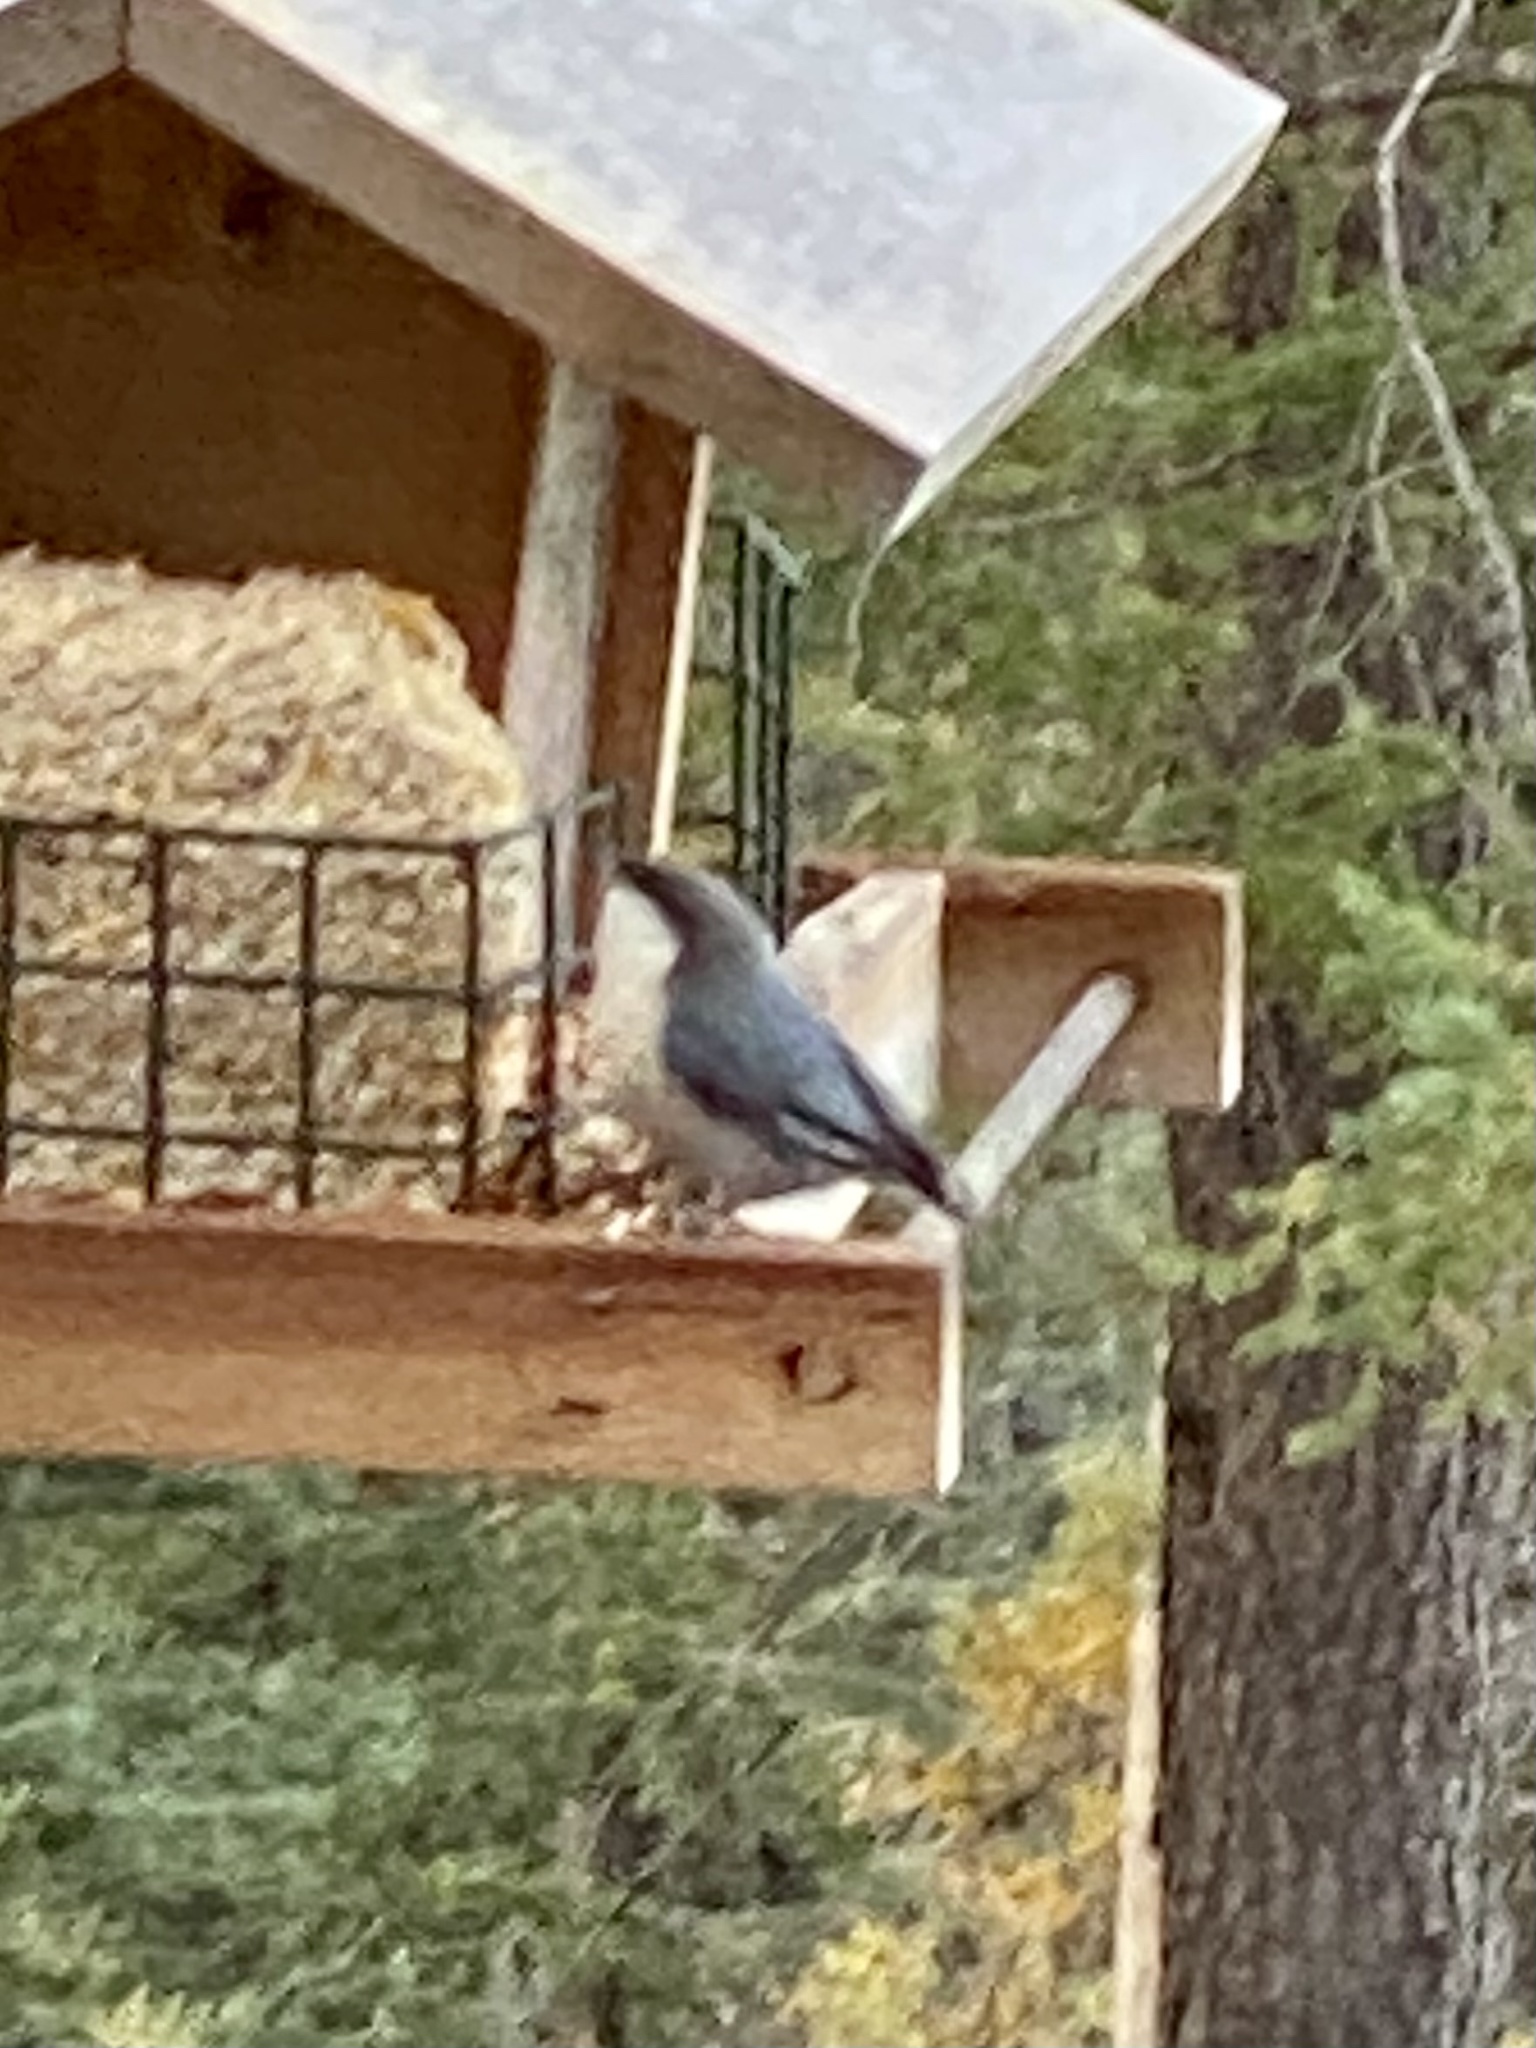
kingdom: Animalia
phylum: Chordata
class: Aves
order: Passeriformes
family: Sittidae
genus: Sitta
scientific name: Sitta pygmaea
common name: Pygmy nuthatch
